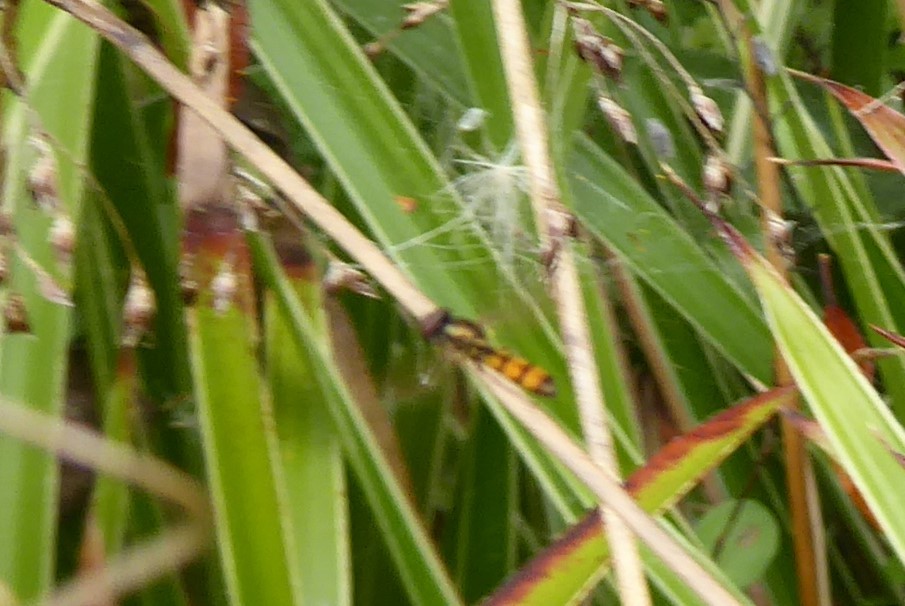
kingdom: Animalia
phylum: Arthropoda
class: Insecta
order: Diptera
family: Syrphidae
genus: Melanostoma
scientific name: Melanostoma fasciatum
